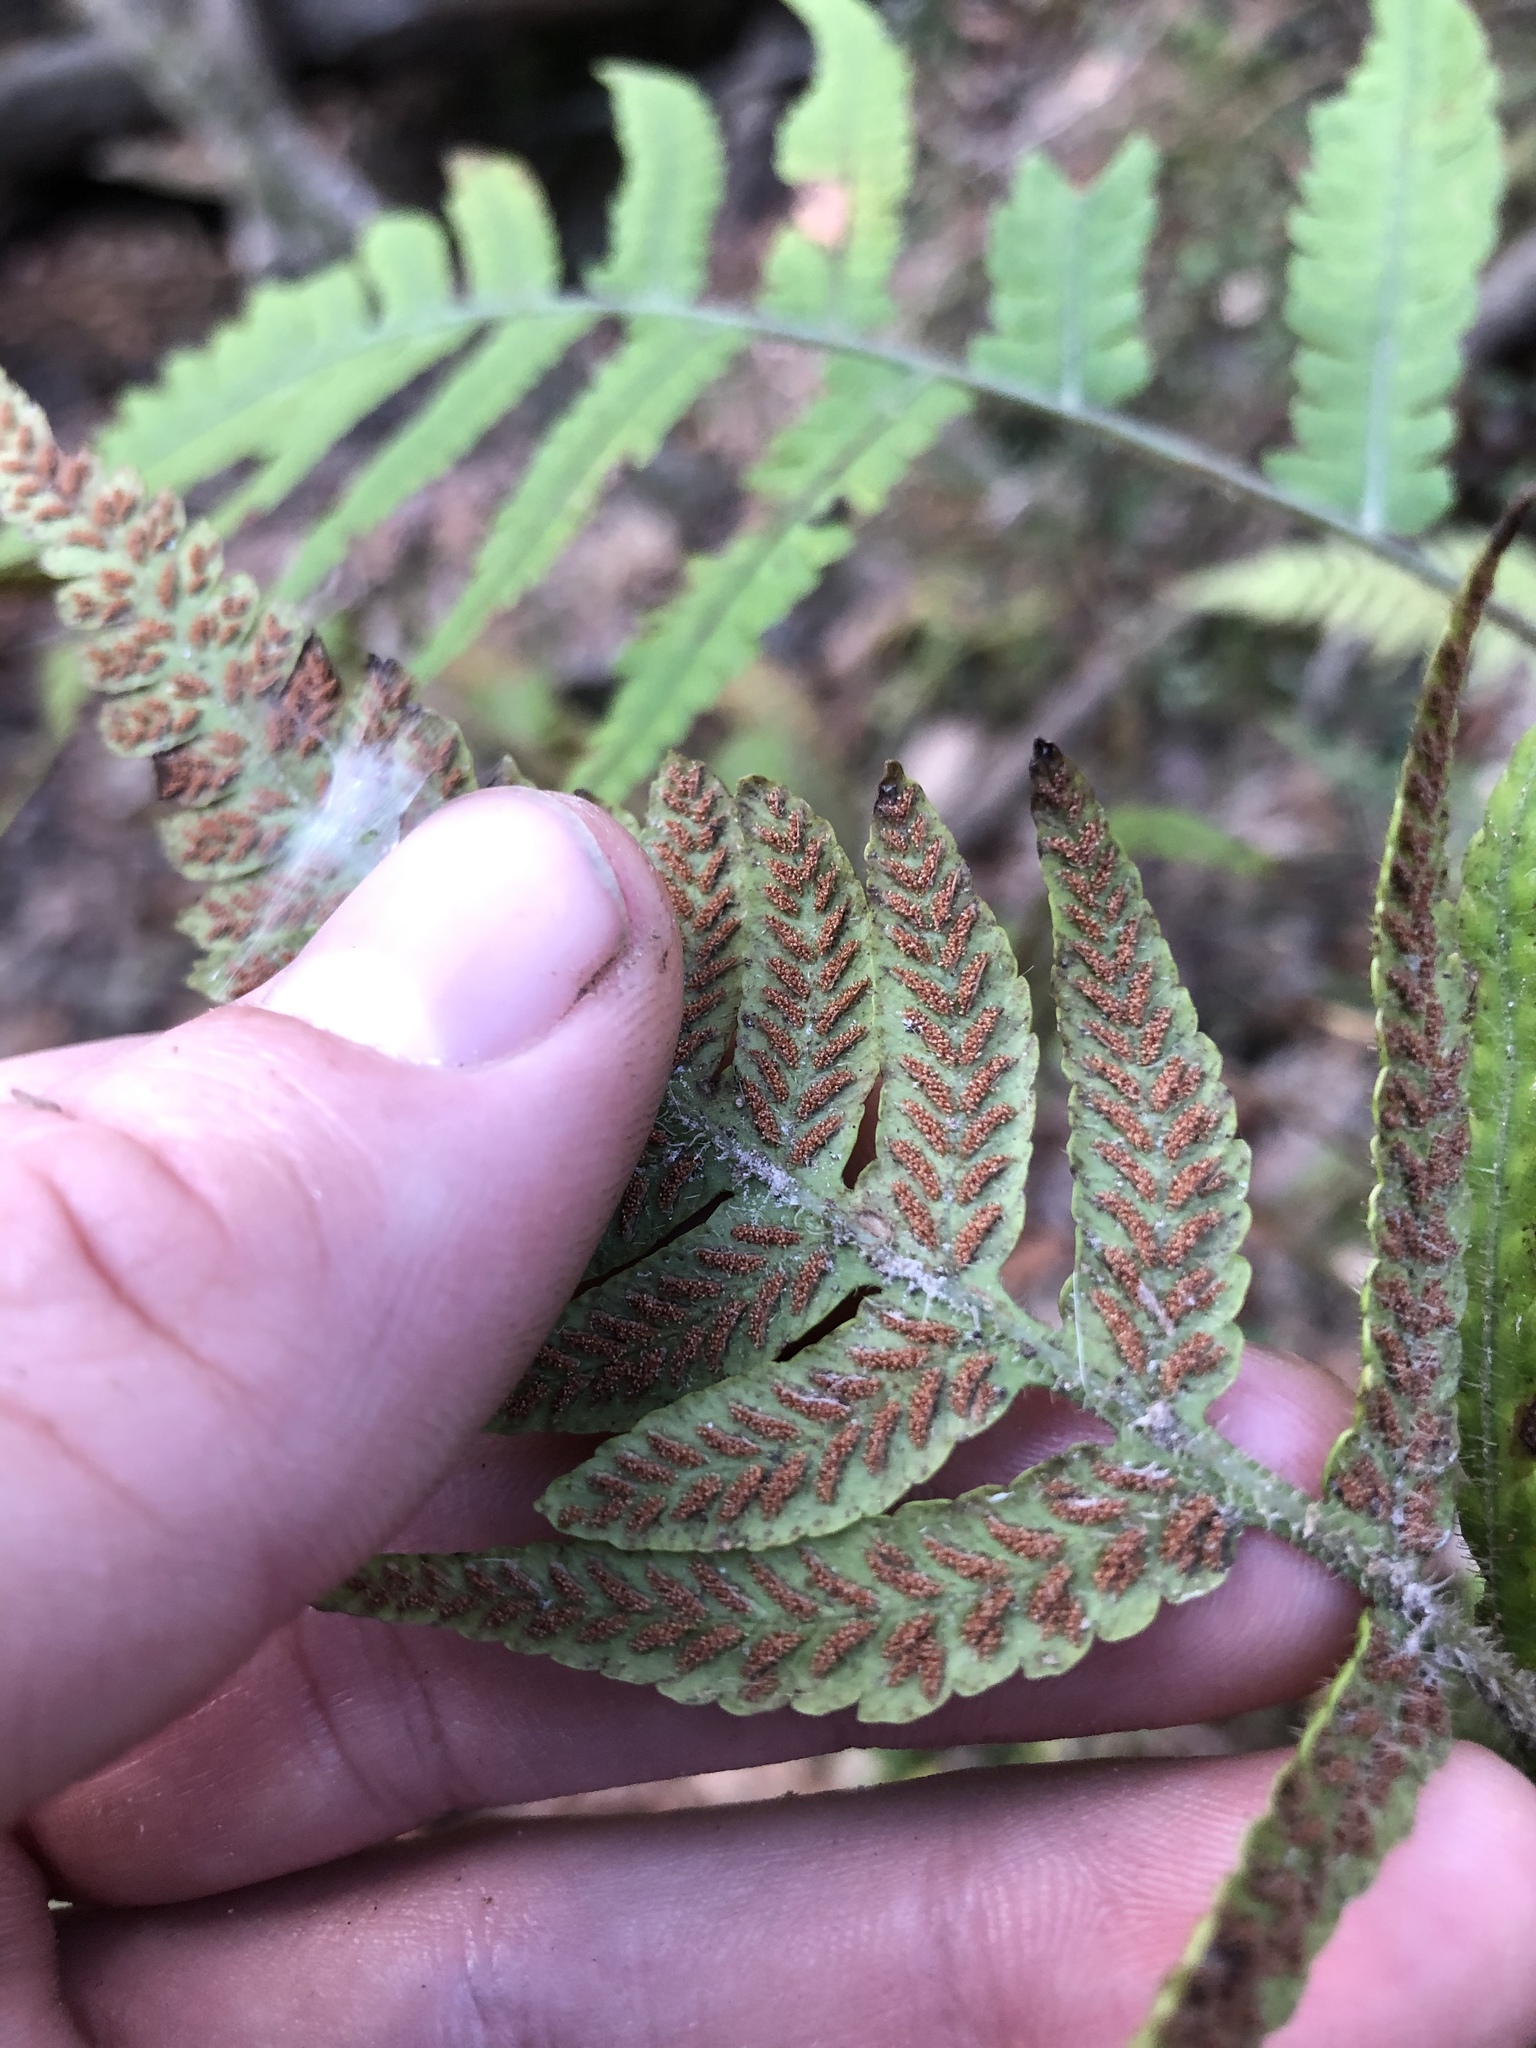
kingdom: Plantae
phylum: Tracheophyta
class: Polypodiopsida
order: Polypodiales
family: Athyriaceae
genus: Deparia
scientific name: Deparia petersenii
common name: Japanese false spleenwort
